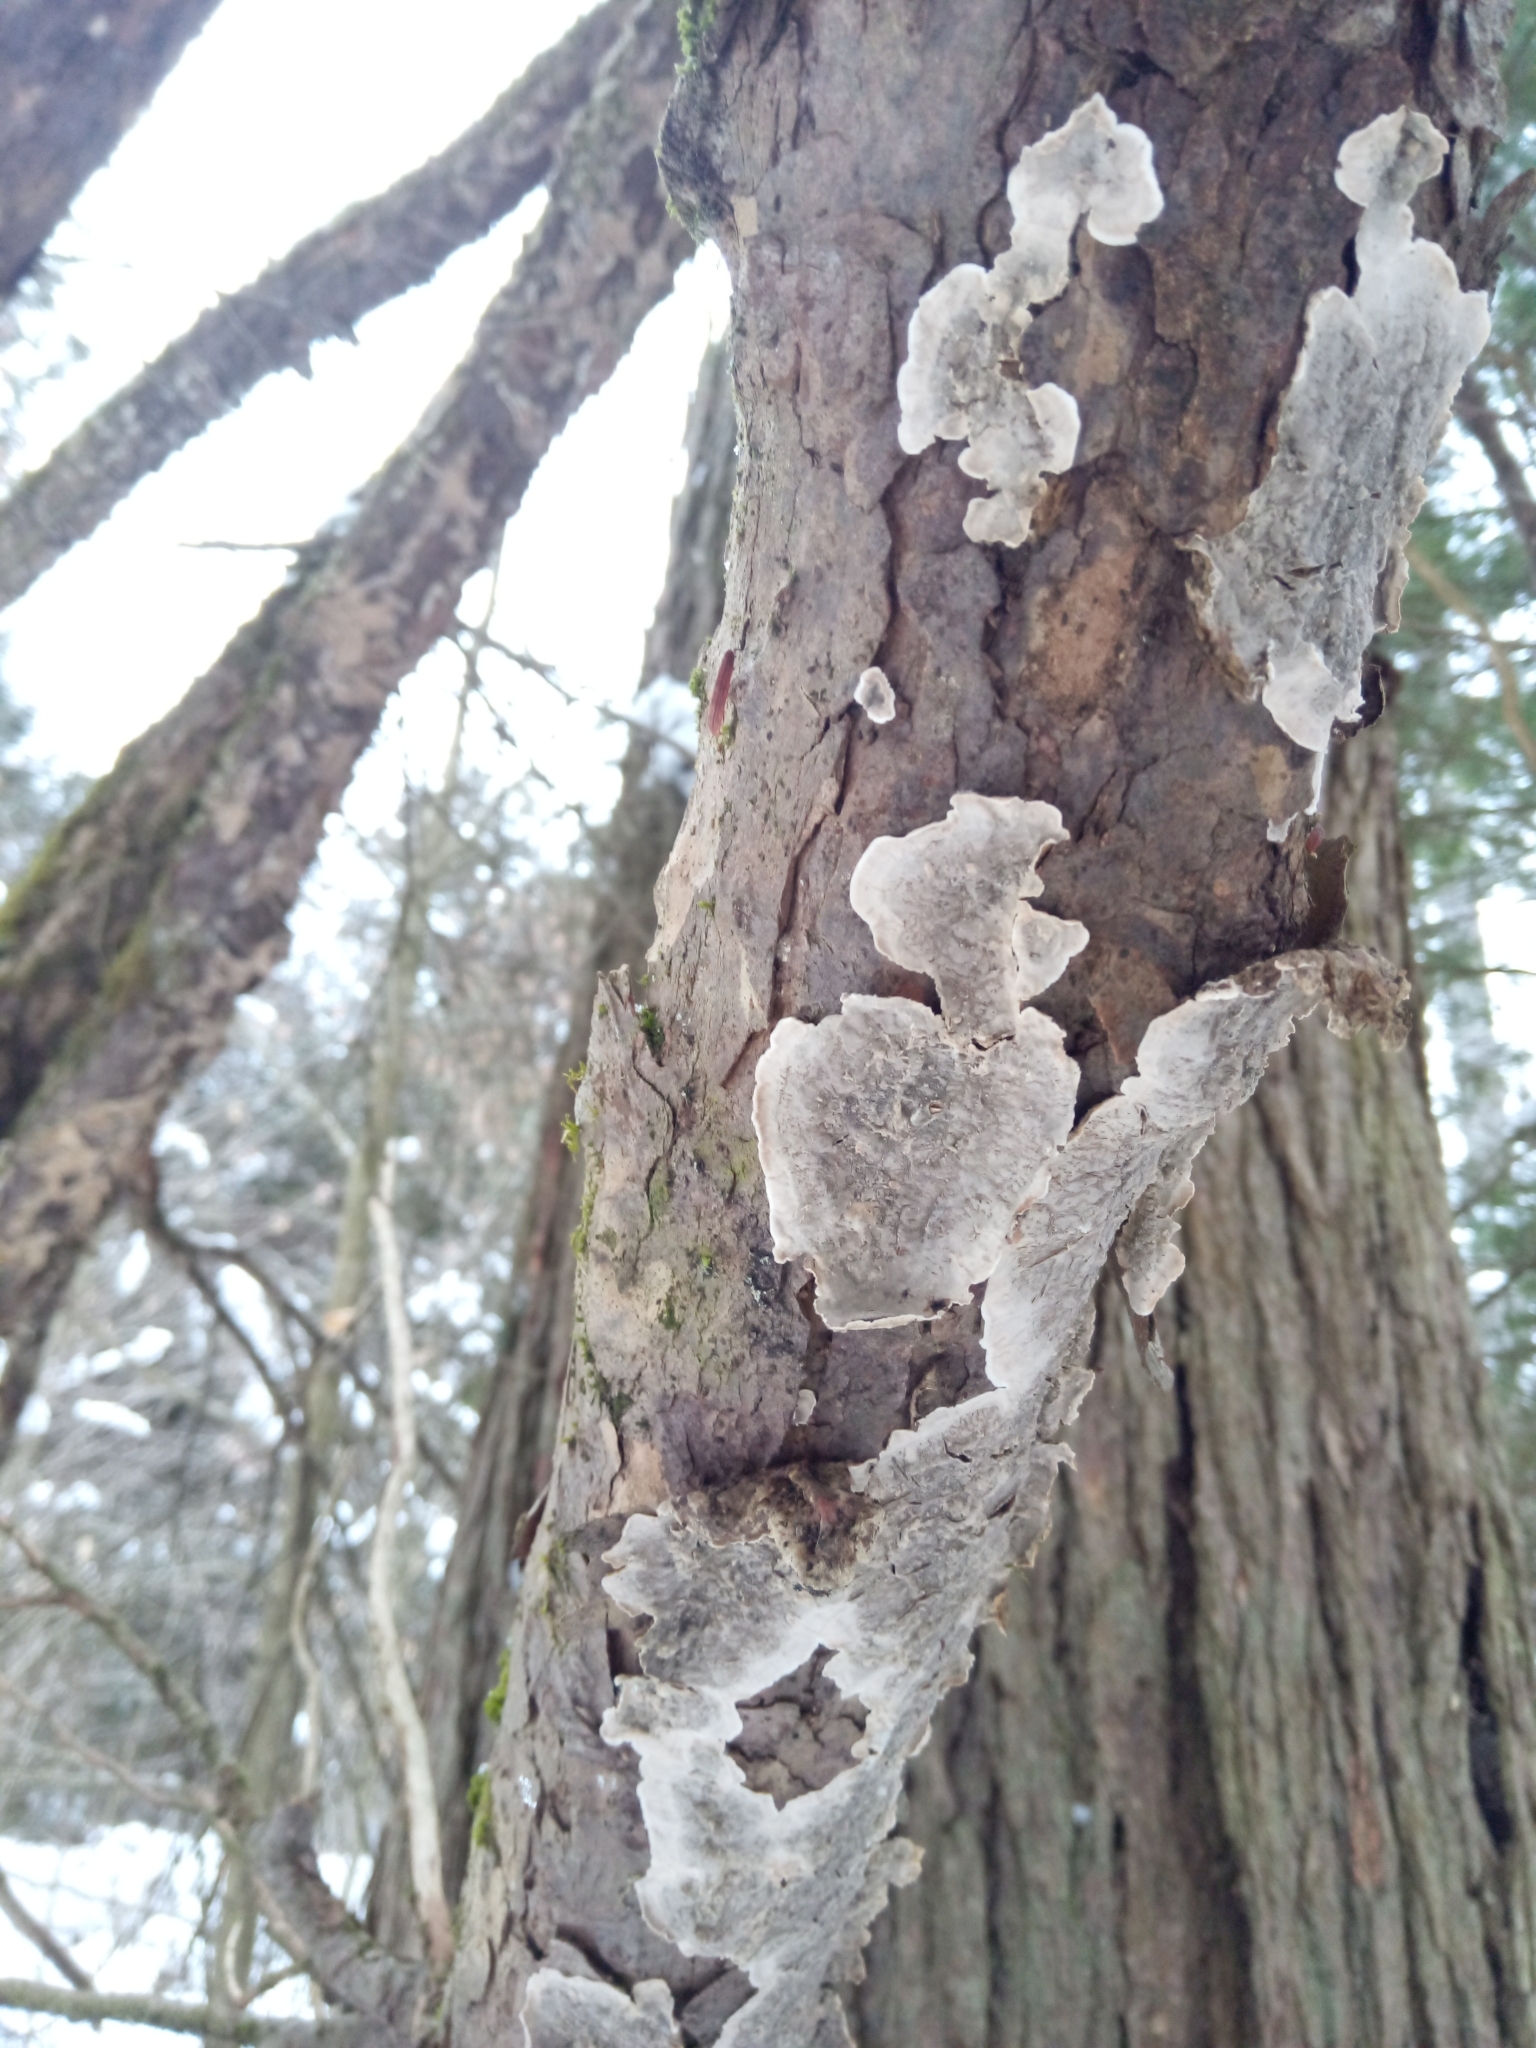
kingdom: Fungi
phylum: Basidiomycota
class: Agaricomycetes
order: Russulales
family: Stereaceae
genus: Stereum
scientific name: Stereum sanguinolentum
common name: Bleeding conifer crust
